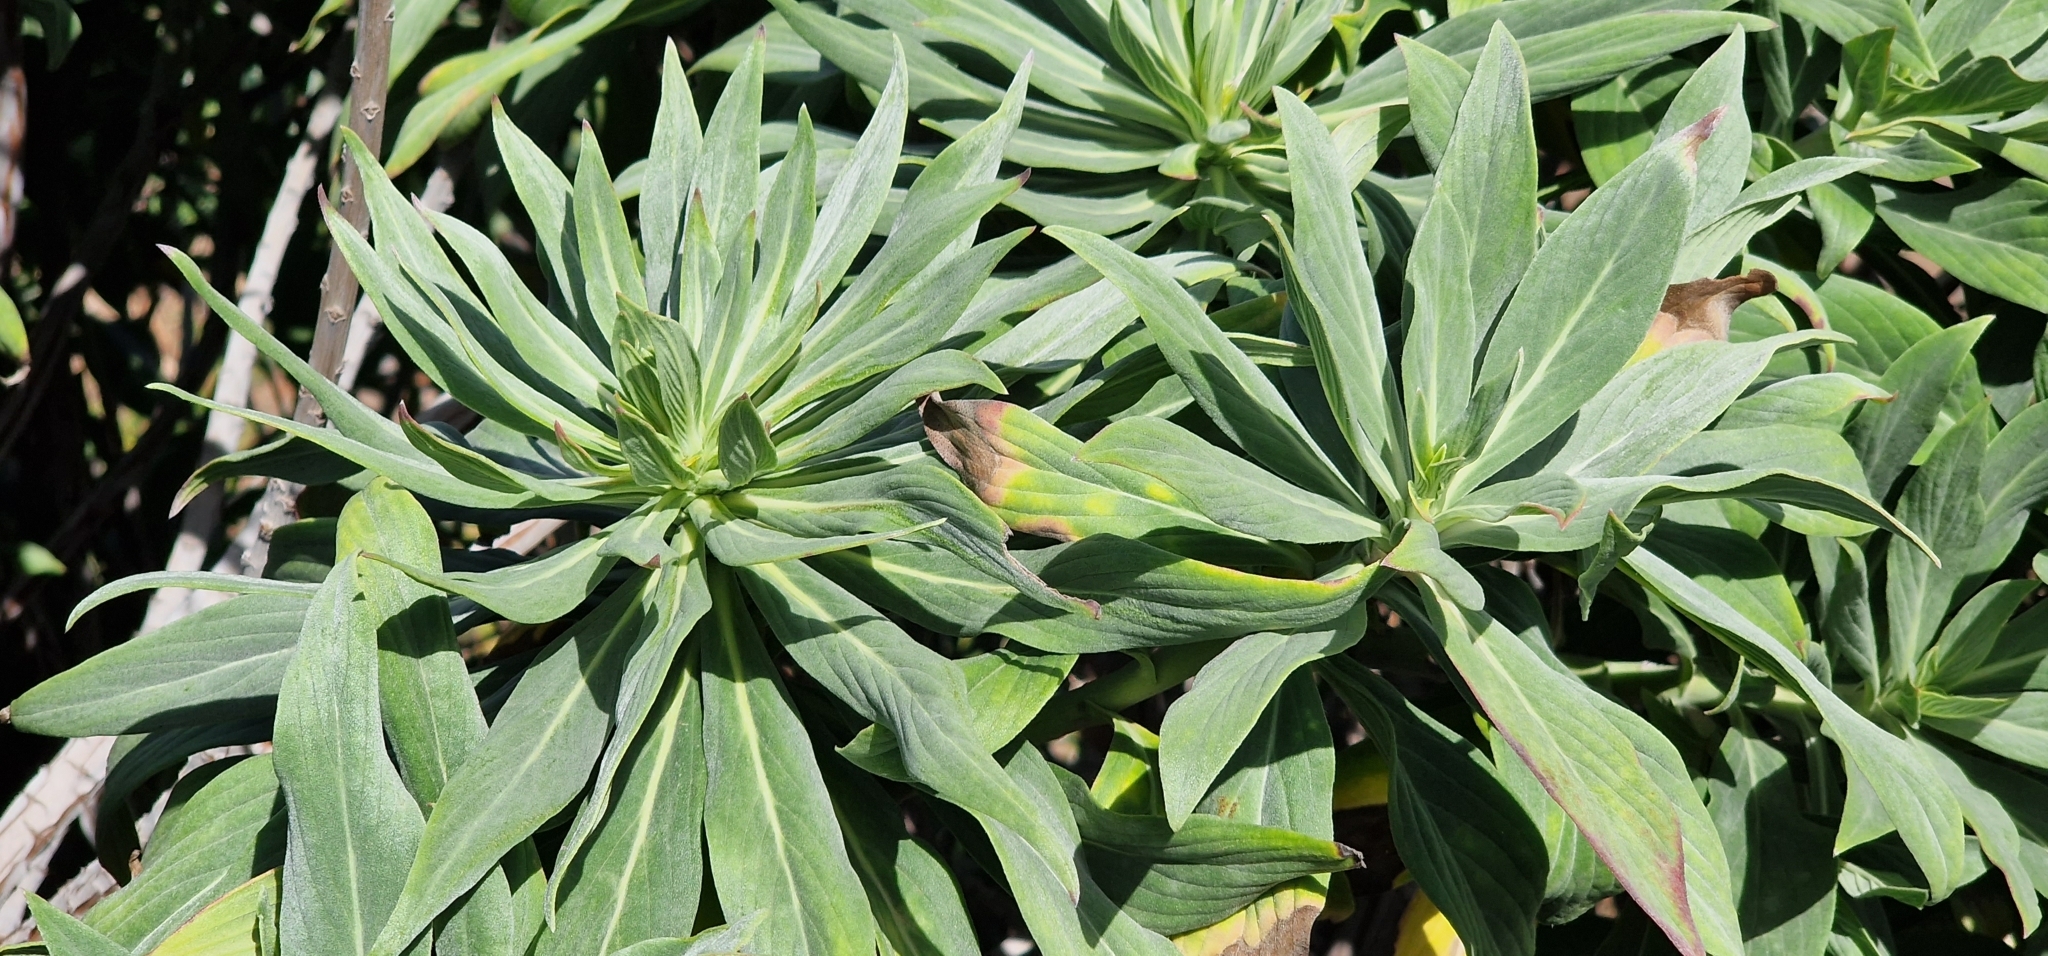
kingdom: Plantae
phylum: Tracheophyta
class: Magnoliopsida
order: Boraginales
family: Boraginaceae
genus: Echium
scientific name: Echium nervosum
